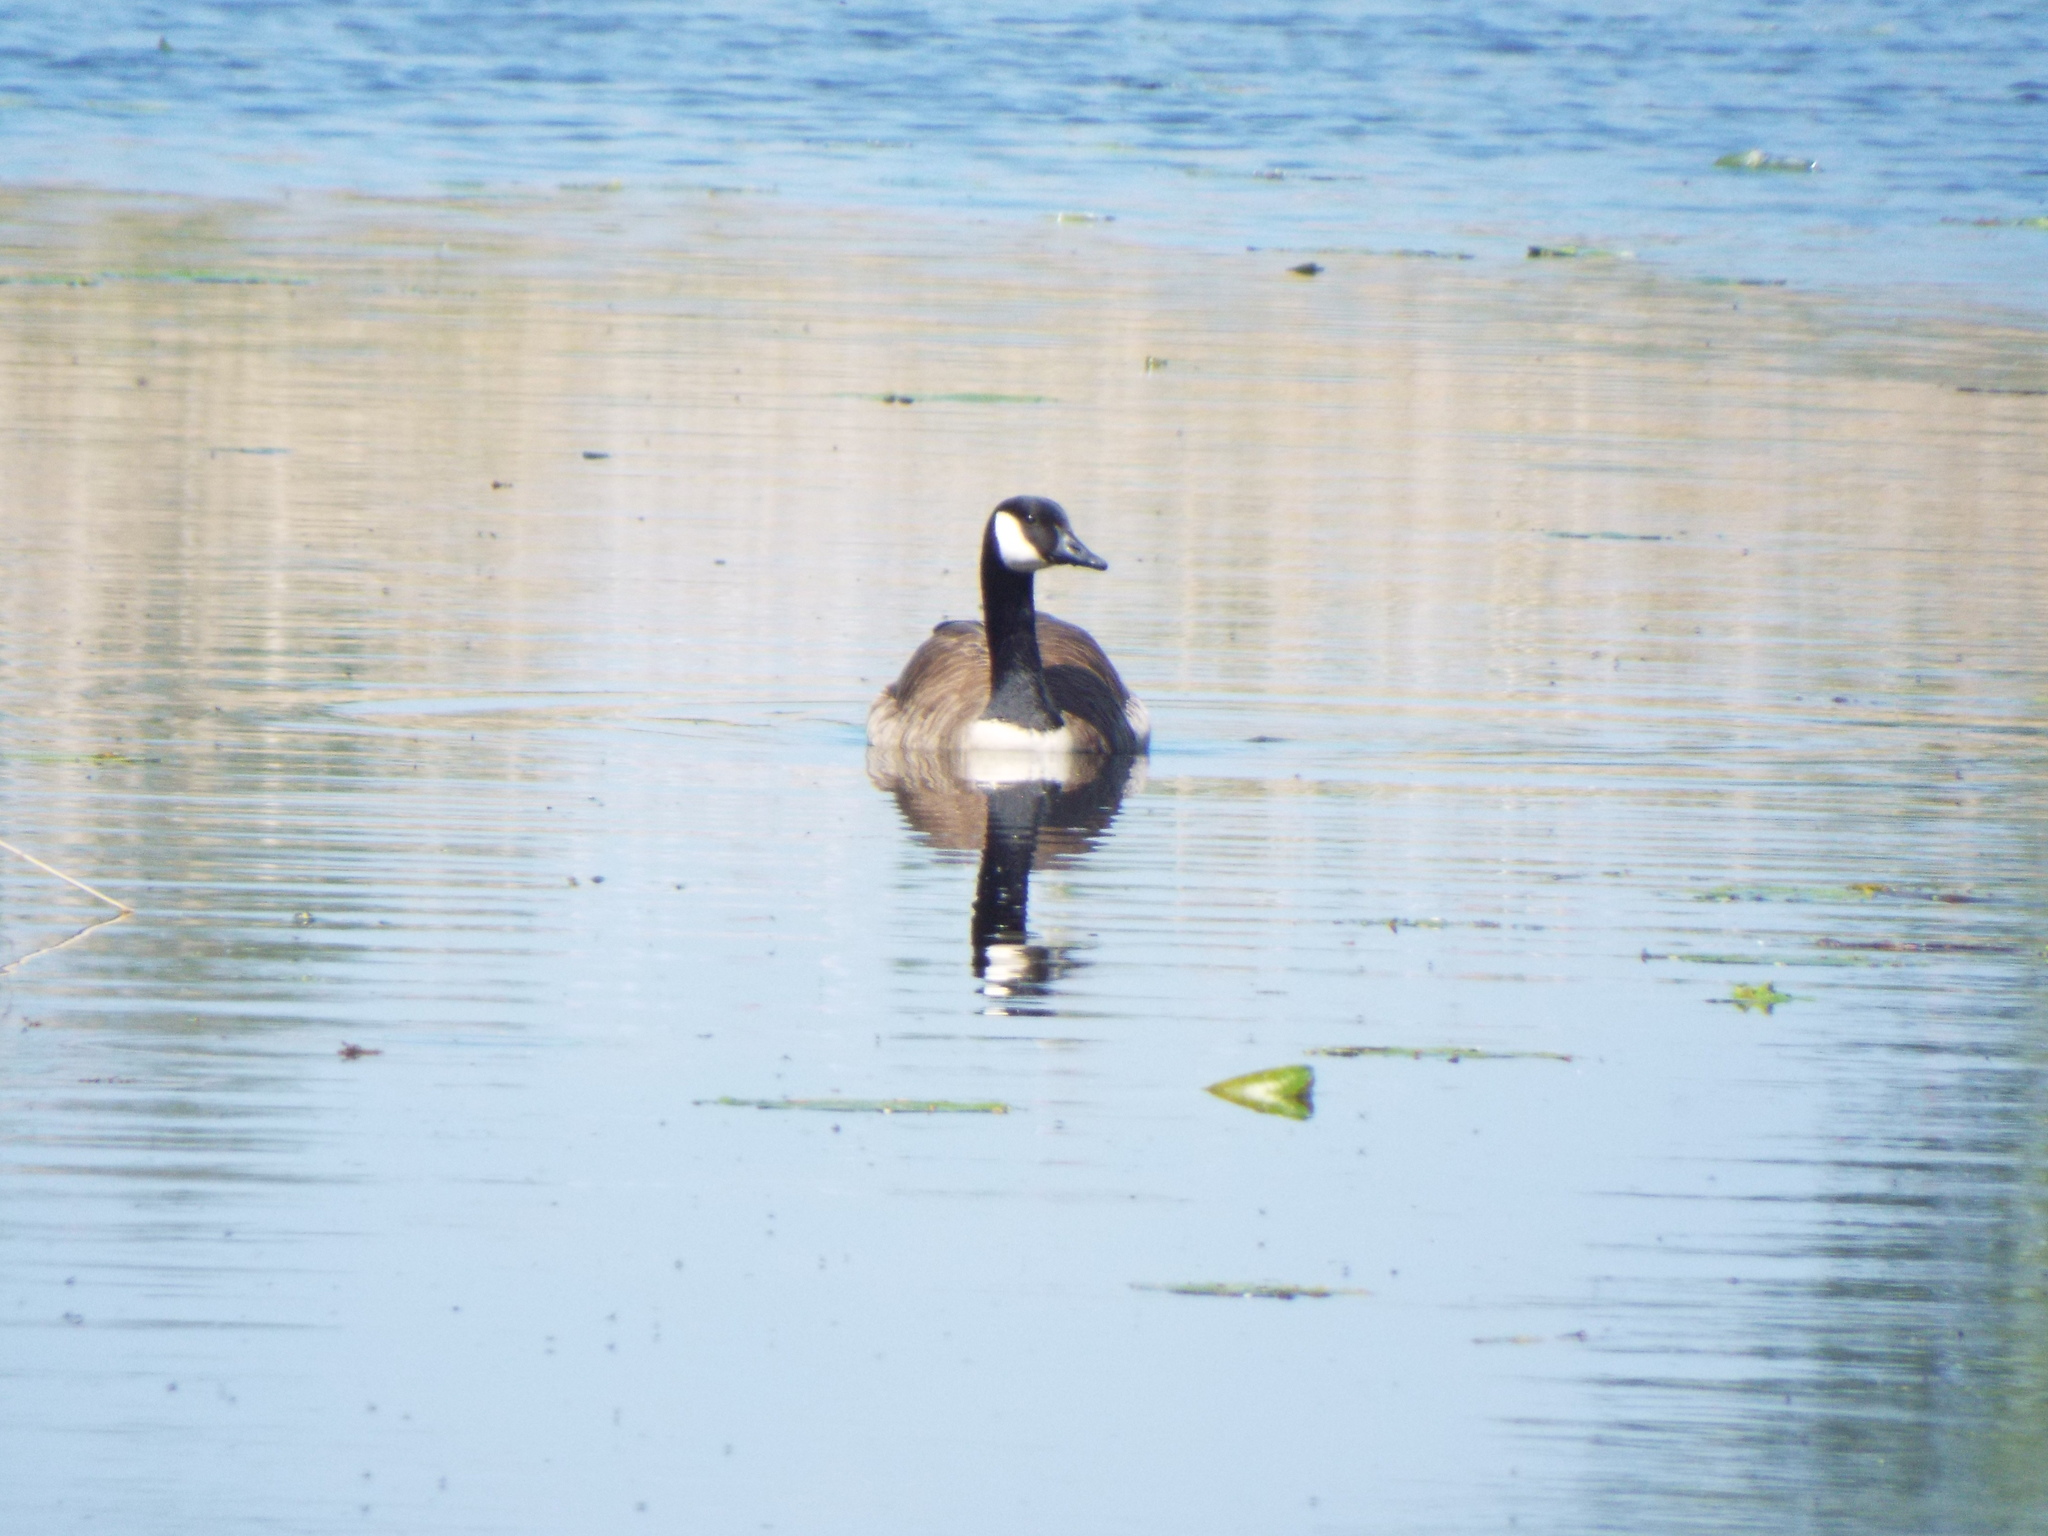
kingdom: Animalia
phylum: Chordata
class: Aves
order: Anseriformes
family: Anatidae
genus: Branta
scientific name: Branta canadensis
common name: Canada goose
